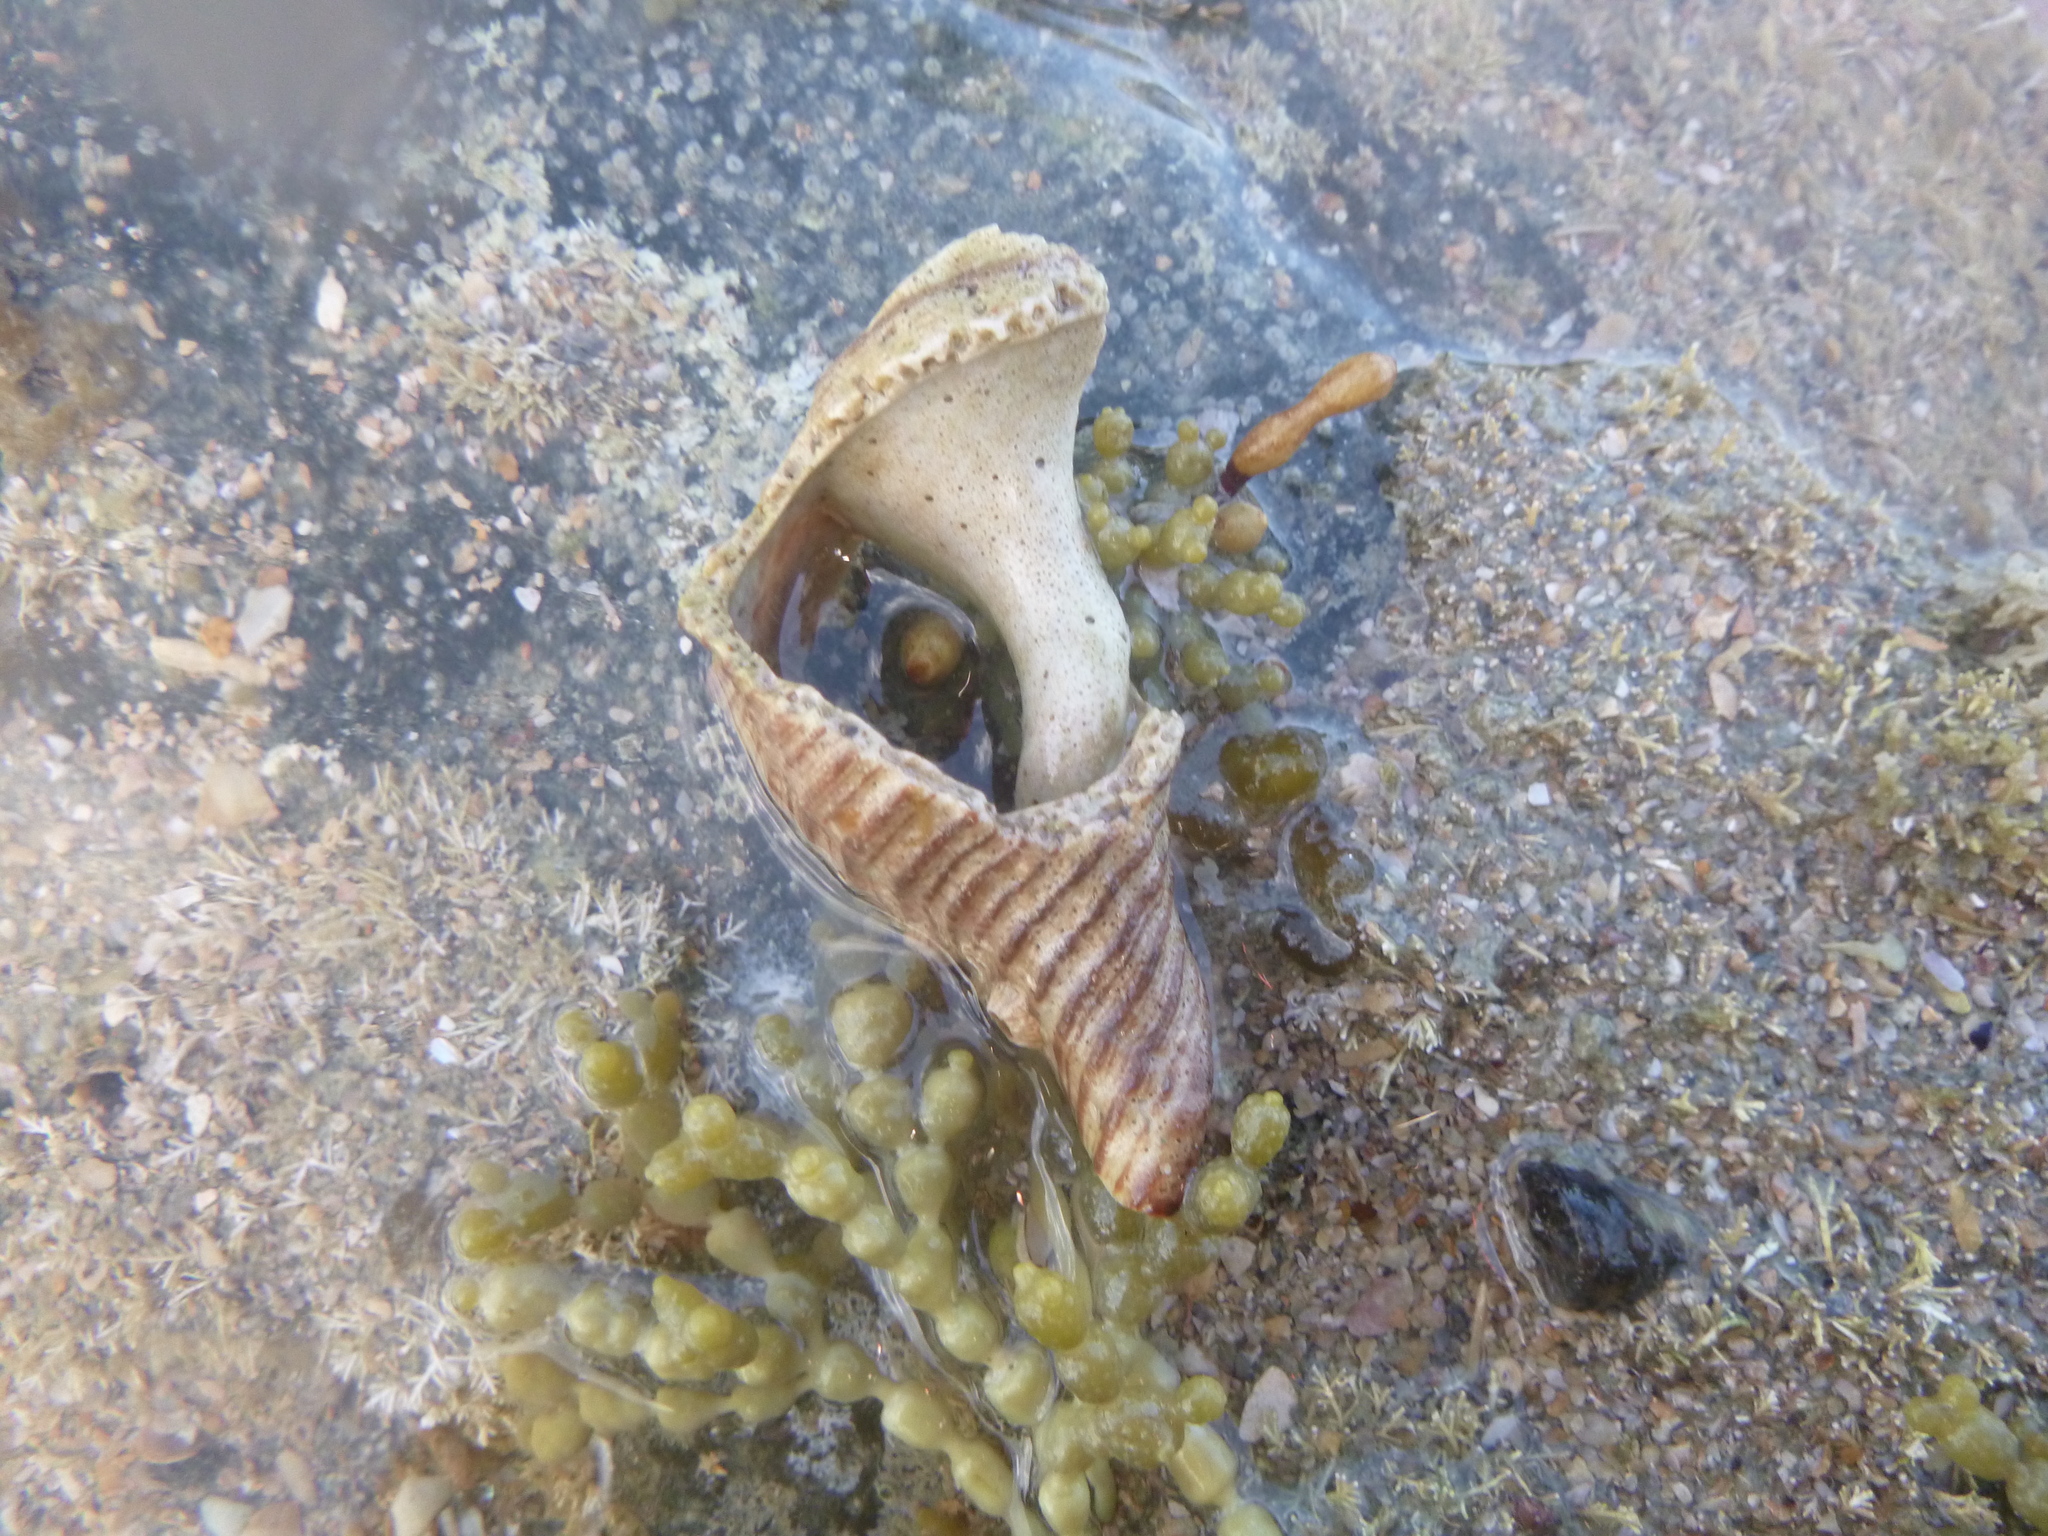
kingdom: Animalia
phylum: Mollusca
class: Gastropoda
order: Neogastropoda
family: Austrosiphonidae
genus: Penion
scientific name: Penion sulcatus
